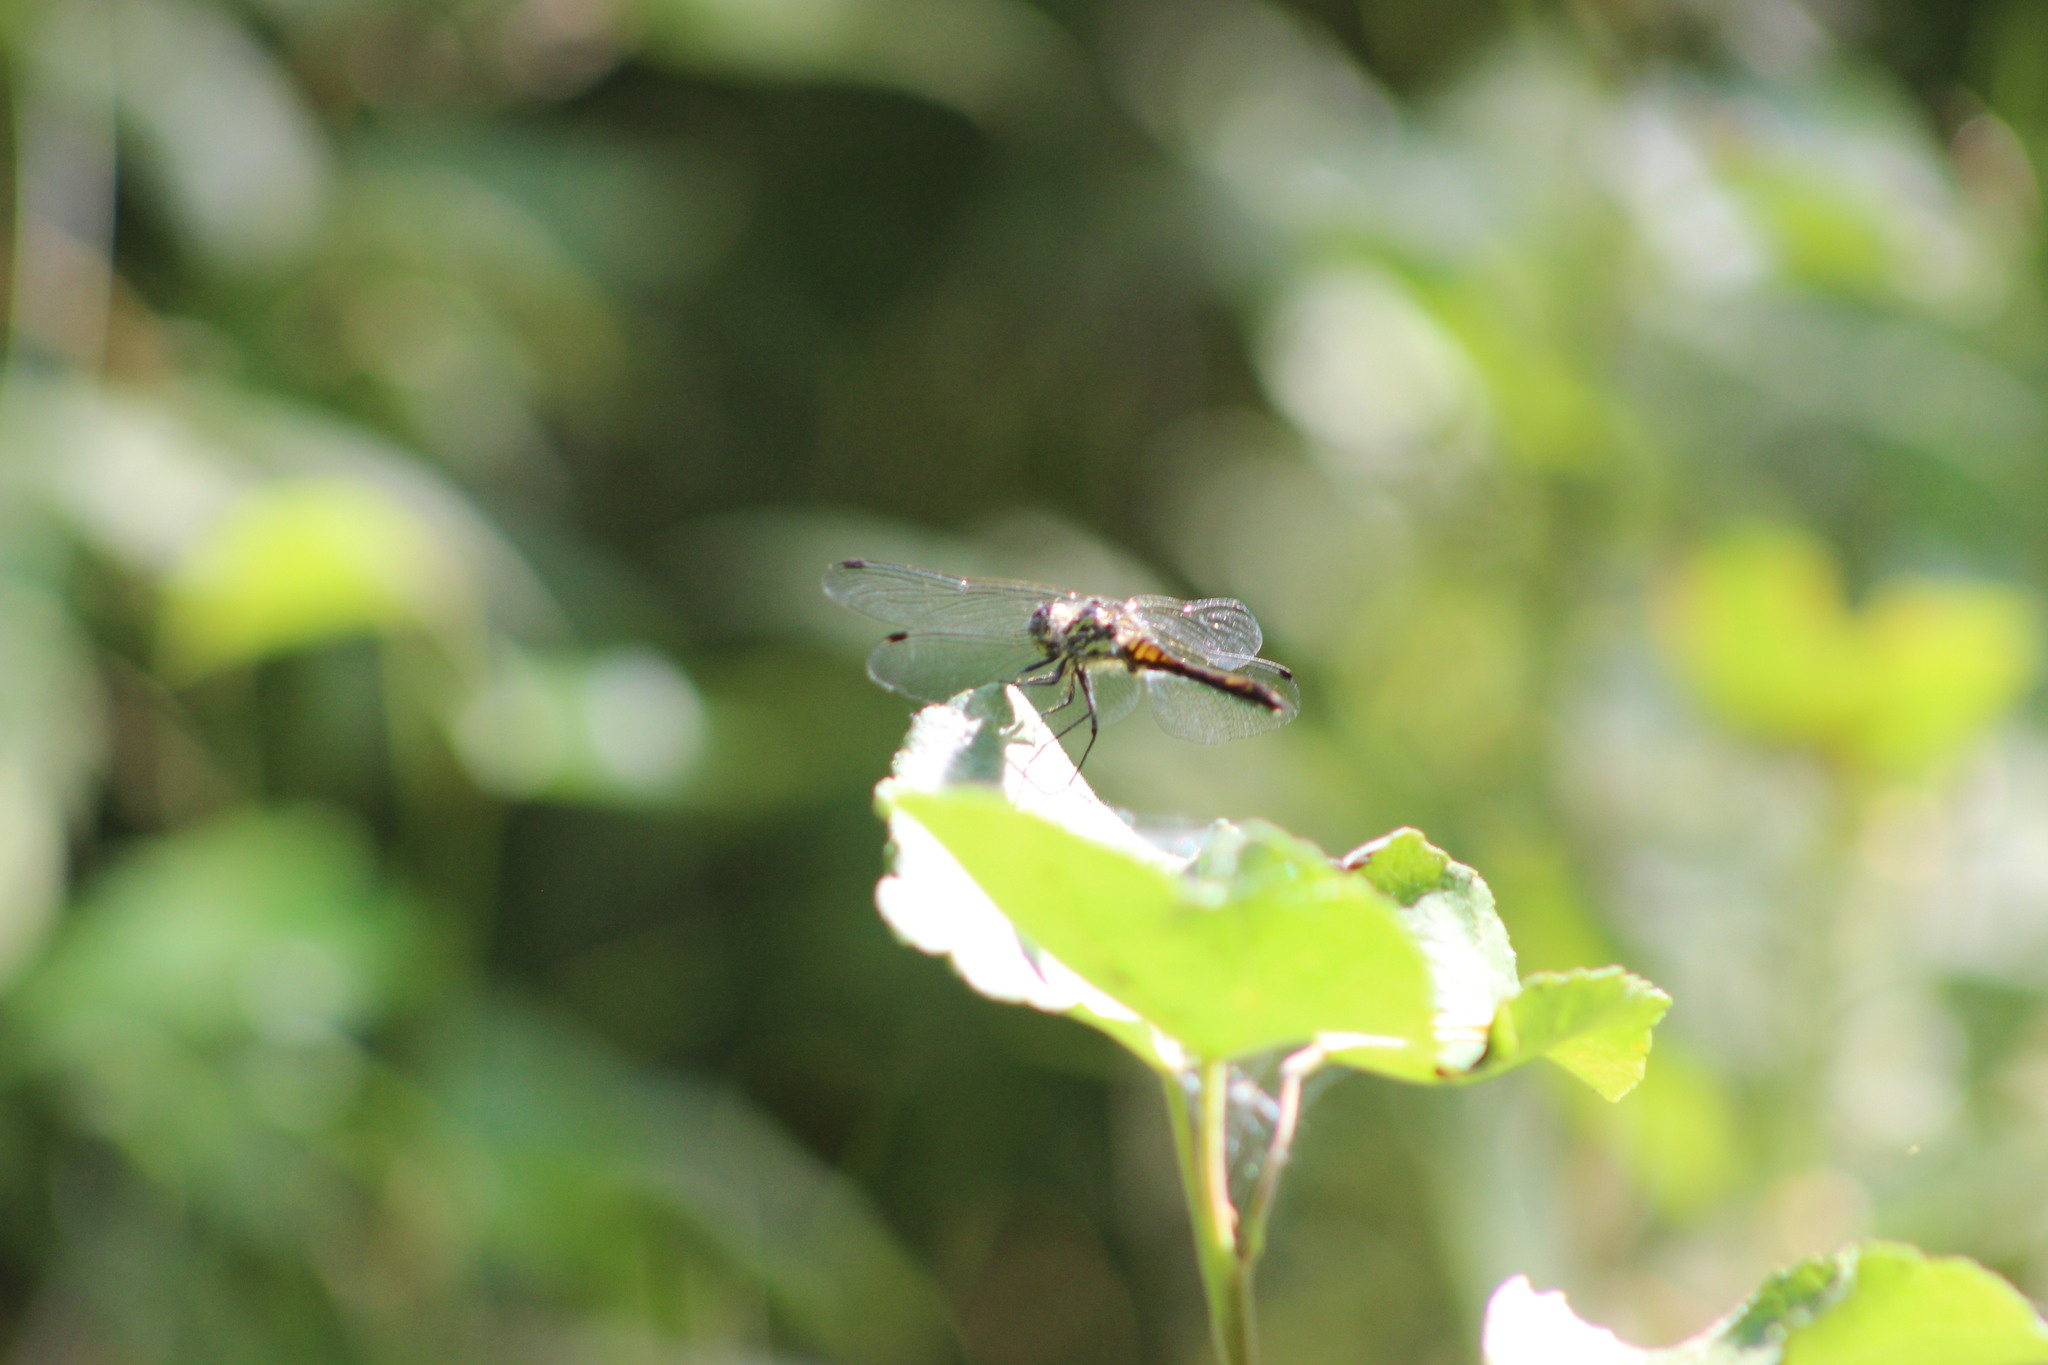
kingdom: Animalia
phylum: Arthropoda
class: Insecta
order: Odonata
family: Libellulidae
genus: Sympetrum
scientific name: Sympetrum danae
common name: Black darter
